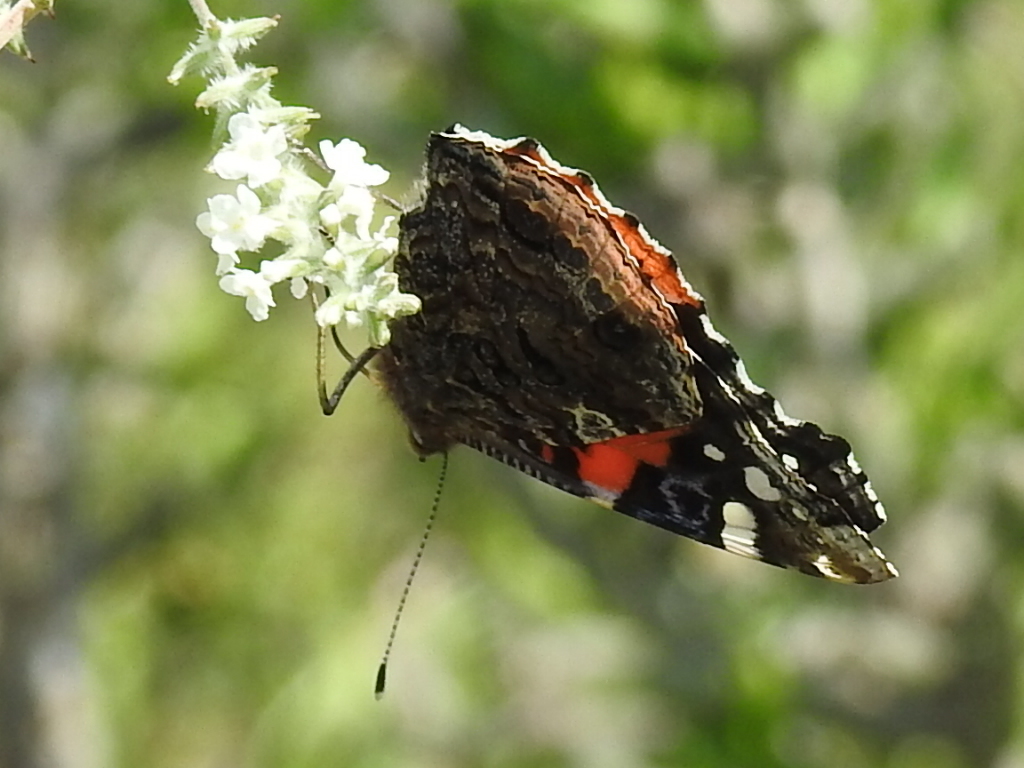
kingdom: Animalia
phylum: Arthropoda
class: Insecta
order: Lepidoptera
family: Nymphalidae
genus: Vanessa
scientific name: Vanessa atalanta
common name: Red admiral
